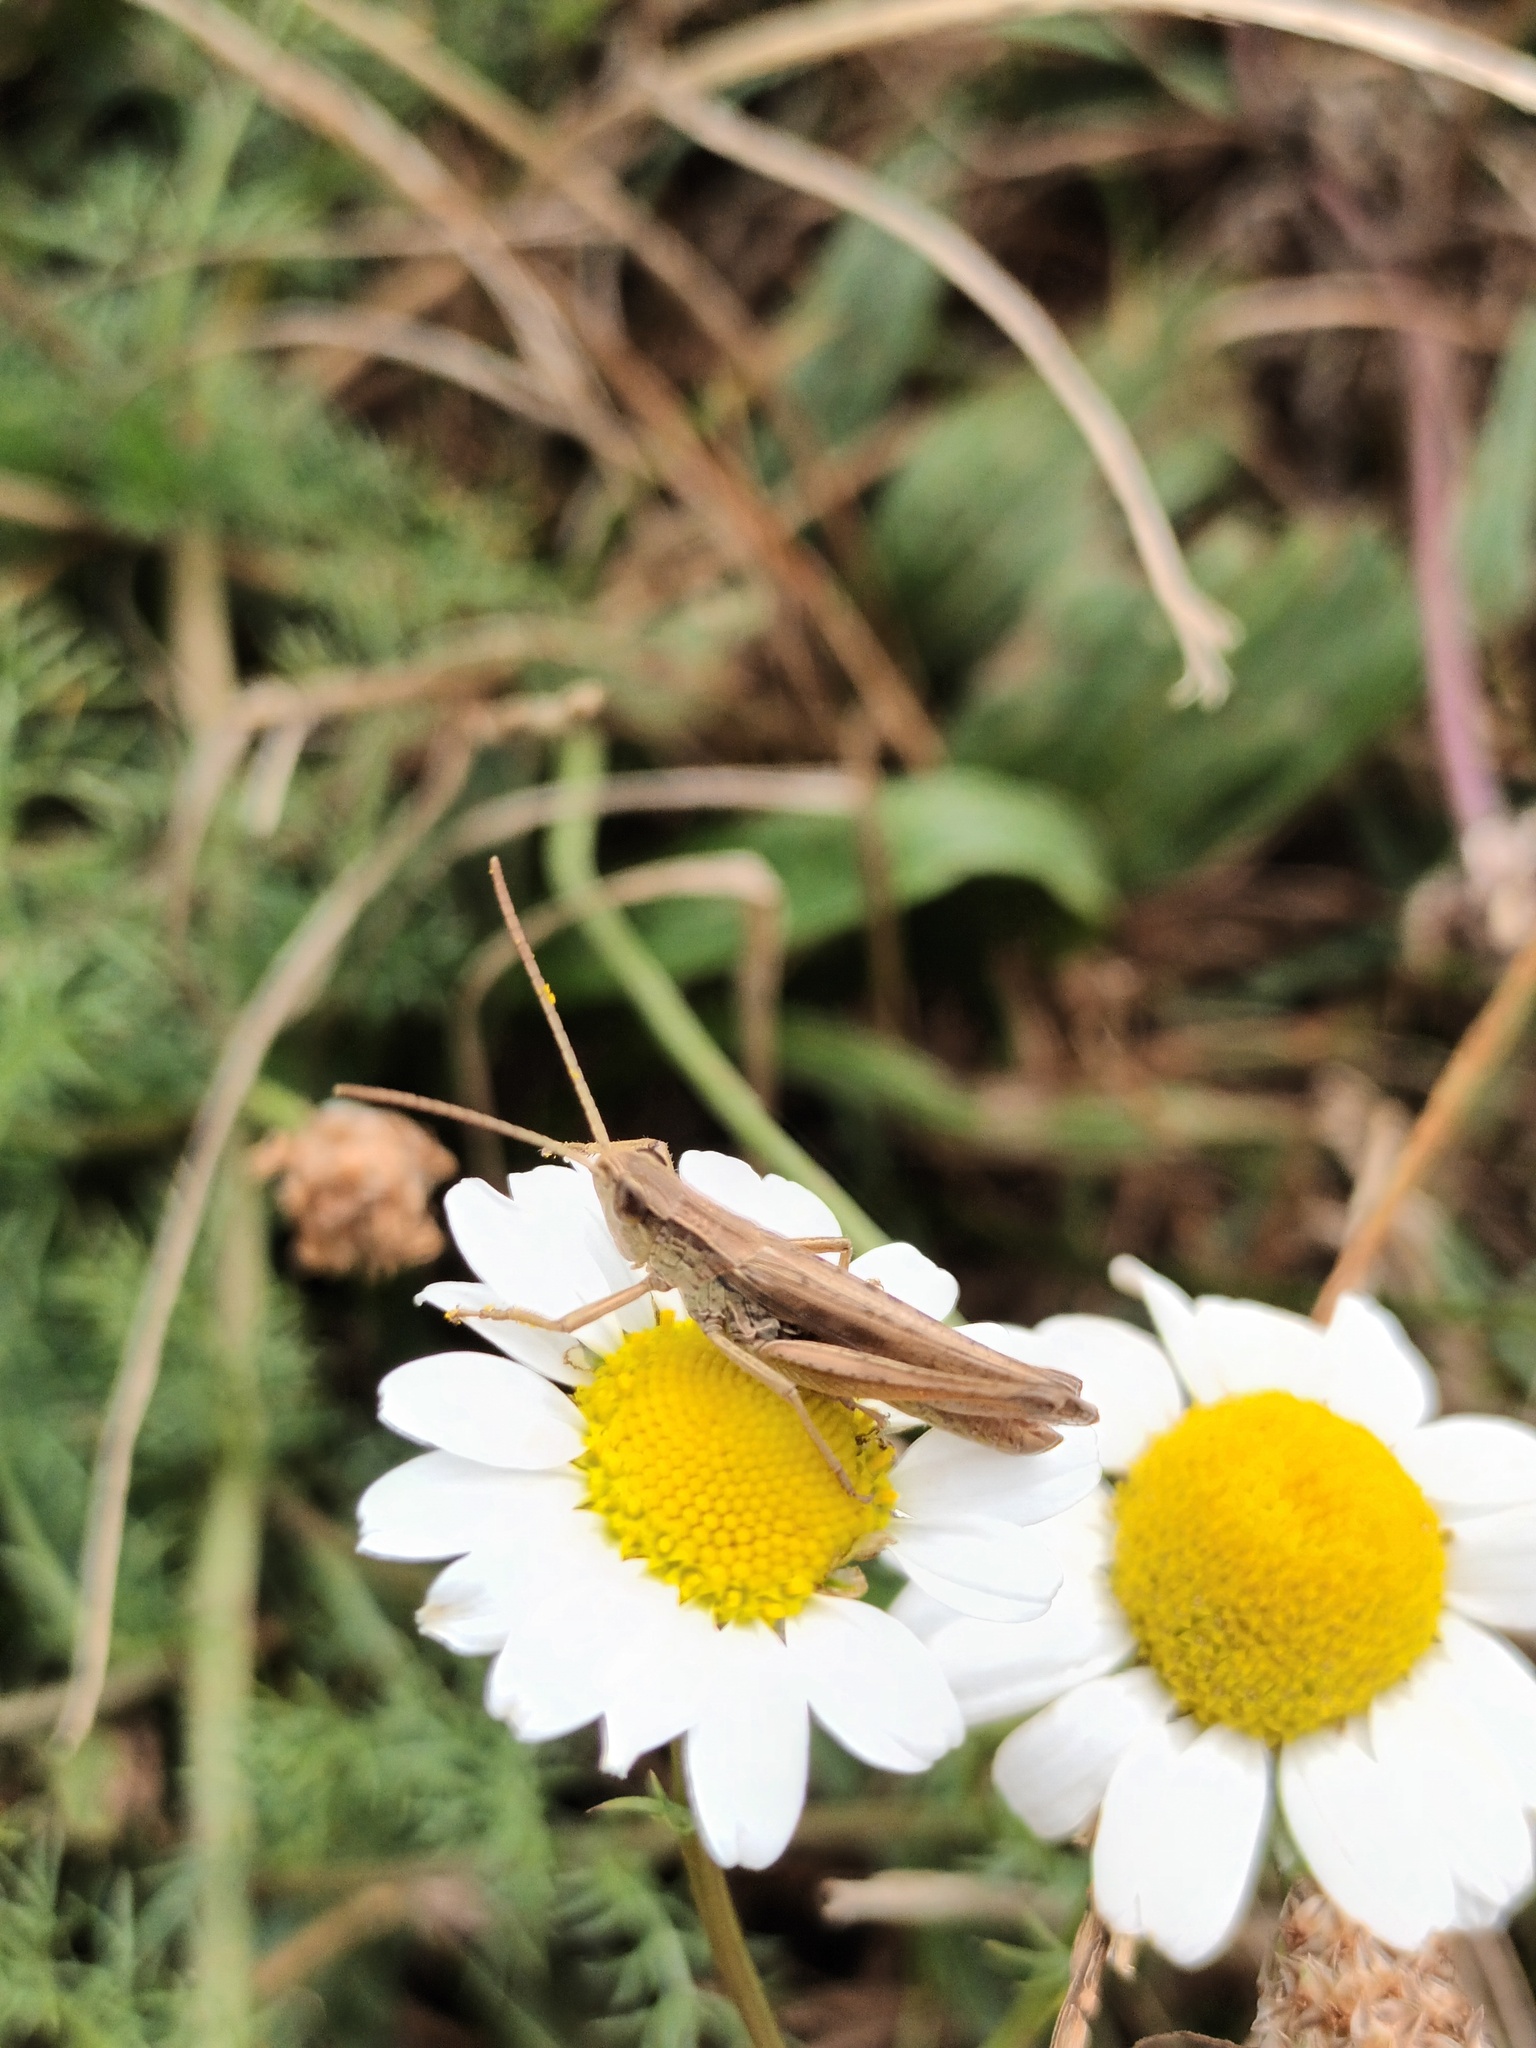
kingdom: Animalia
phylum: Arthropoda
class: Insecta
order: Orthoptera
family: Acrididae
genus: Chorthippus
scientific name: Chorthippus albomarginatus
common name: Lesser marsh grasshopper
